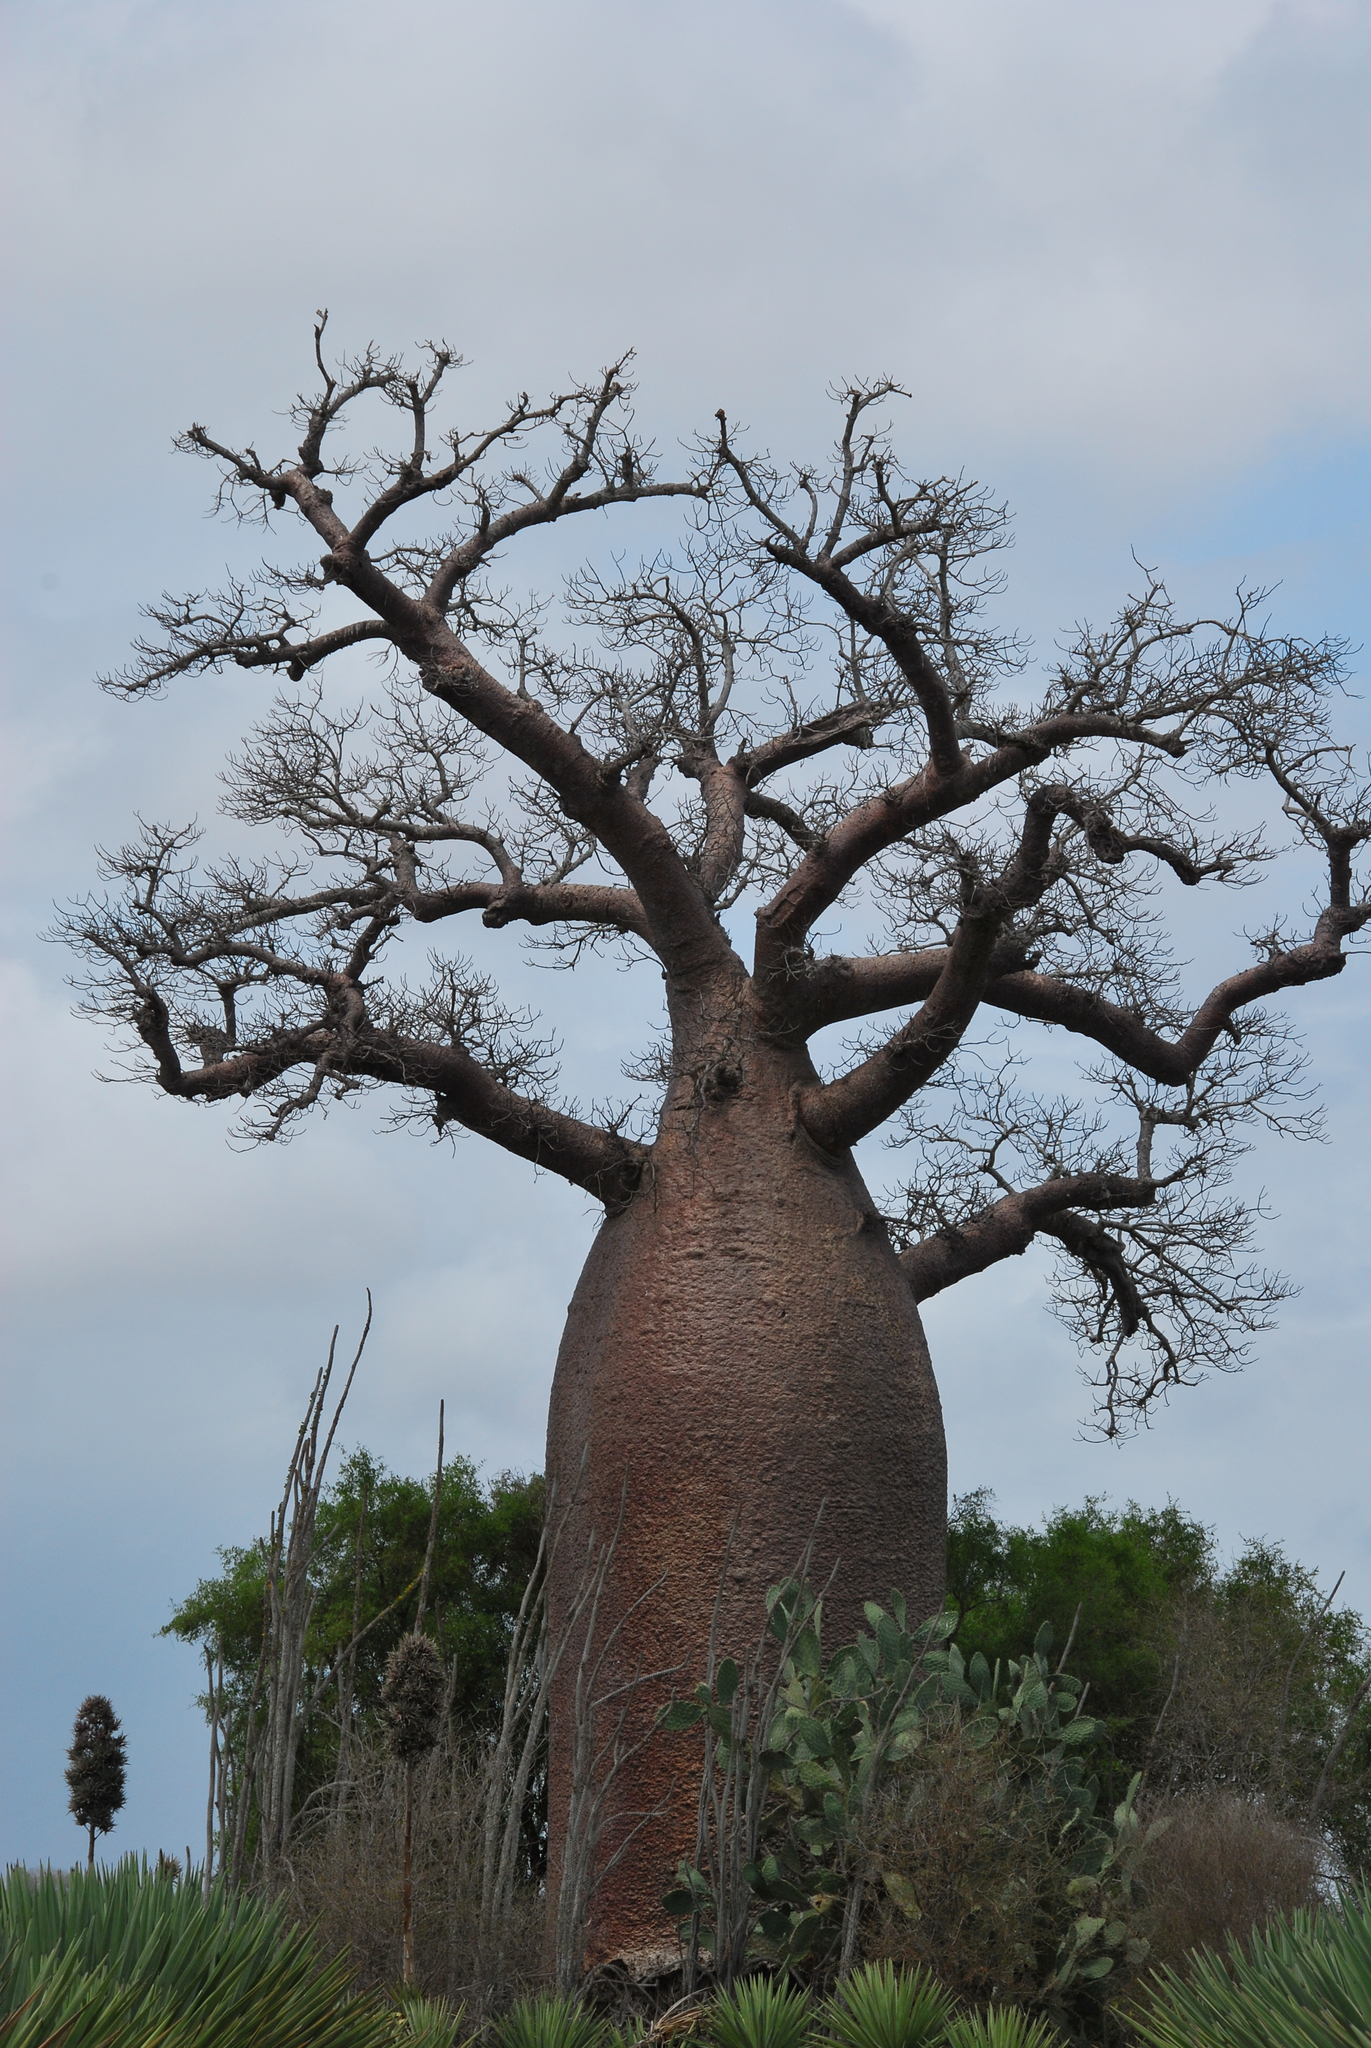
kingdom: Plantae
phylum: Tracheophyta
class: Magnoliopsida
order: Malvales
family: Malvaceae
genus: Adansonia
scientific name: Adansonia za
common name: Za baobab
